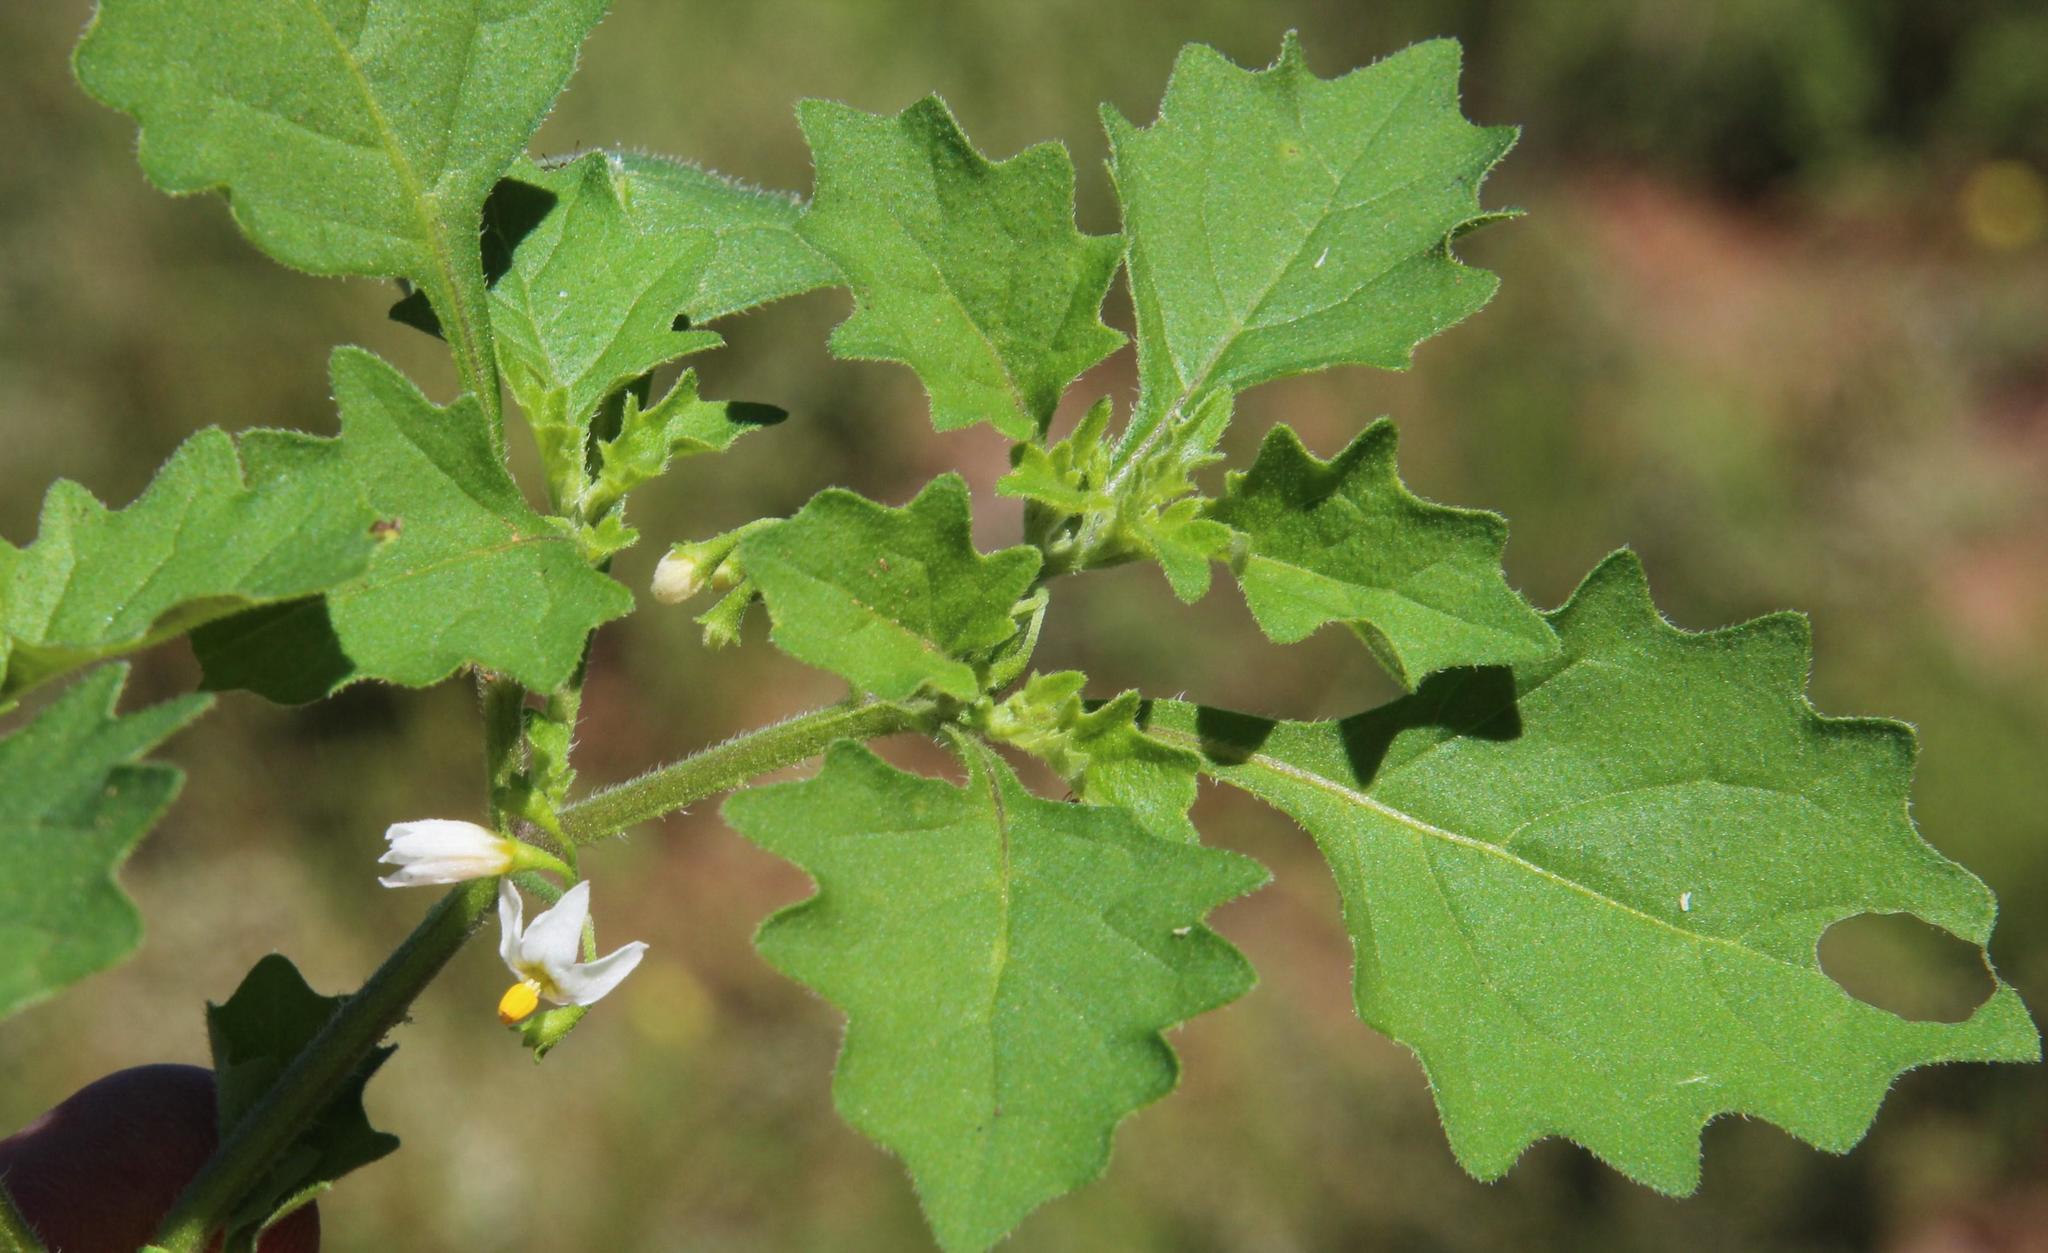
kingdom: Plantae
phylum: Tracheophyta
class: Magnoliopsida
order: Solanales
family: Solanaceae
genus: Solanum
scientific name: Solanum retroflexum
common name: Wonderberry
